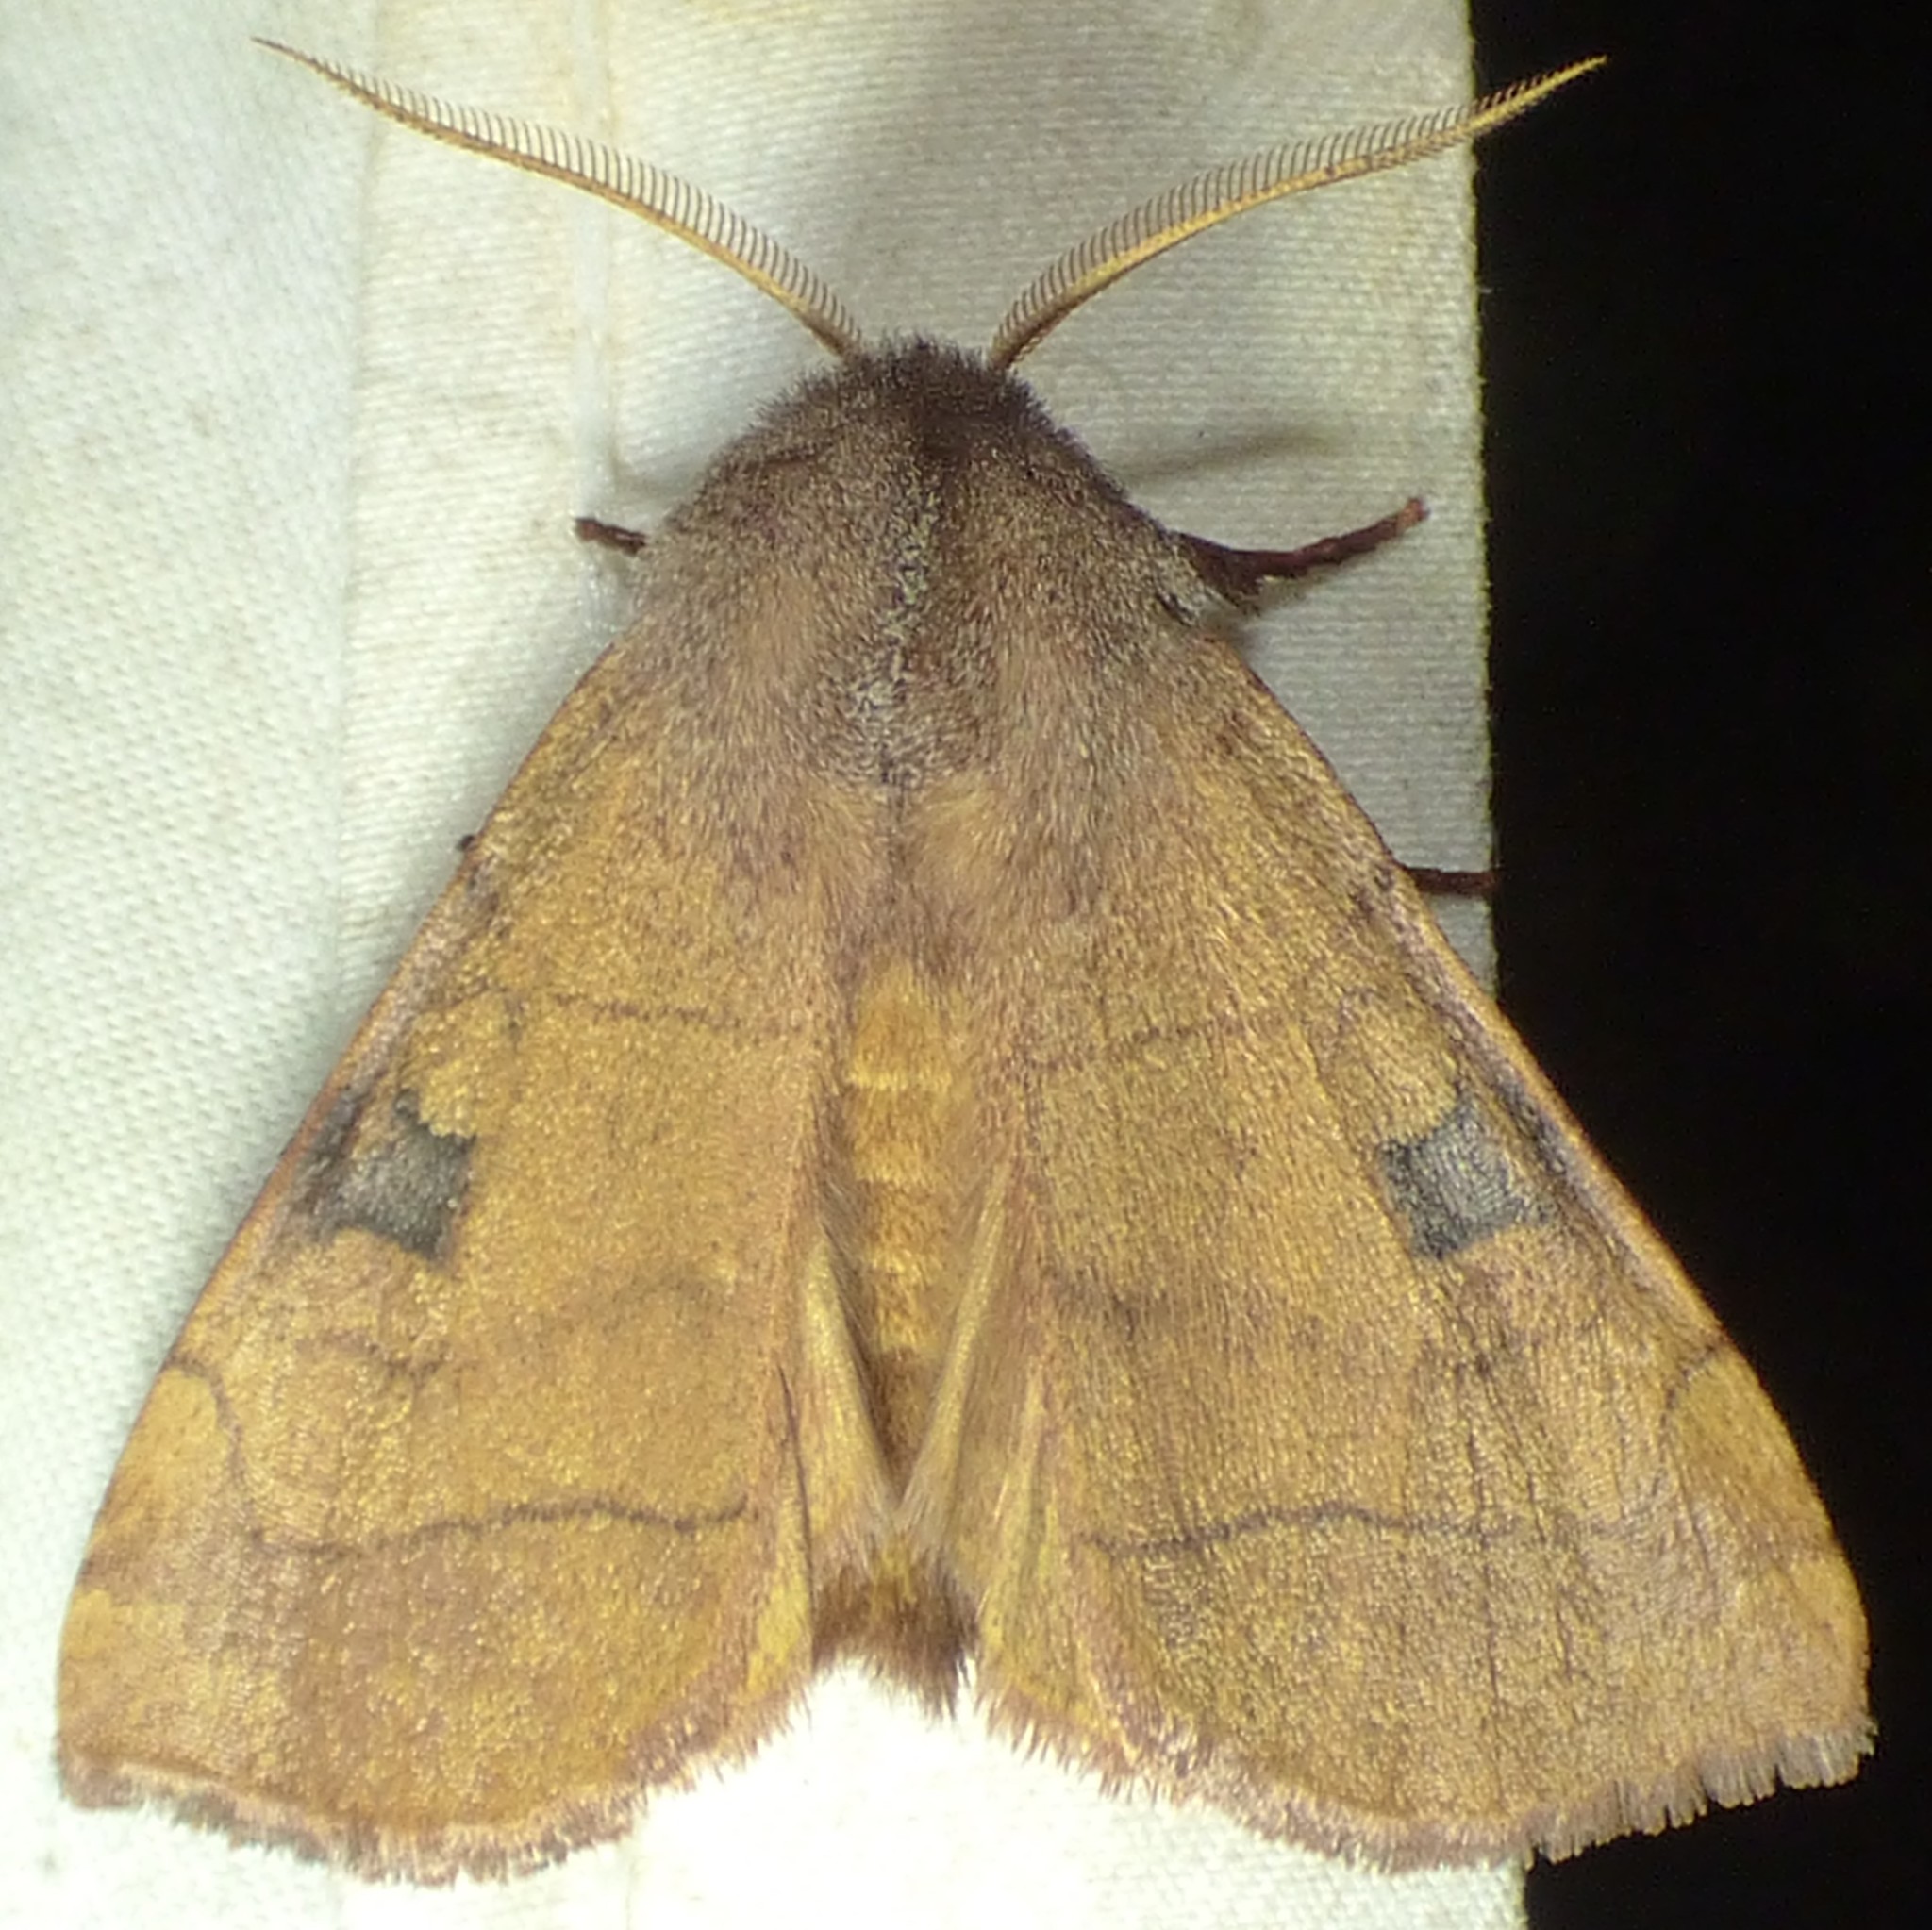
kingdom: Animalia
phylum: Arthropoda
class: Insecta
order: Lepidoptera
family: Noctuidae
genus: Choephora
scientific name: Choephora fungorum
